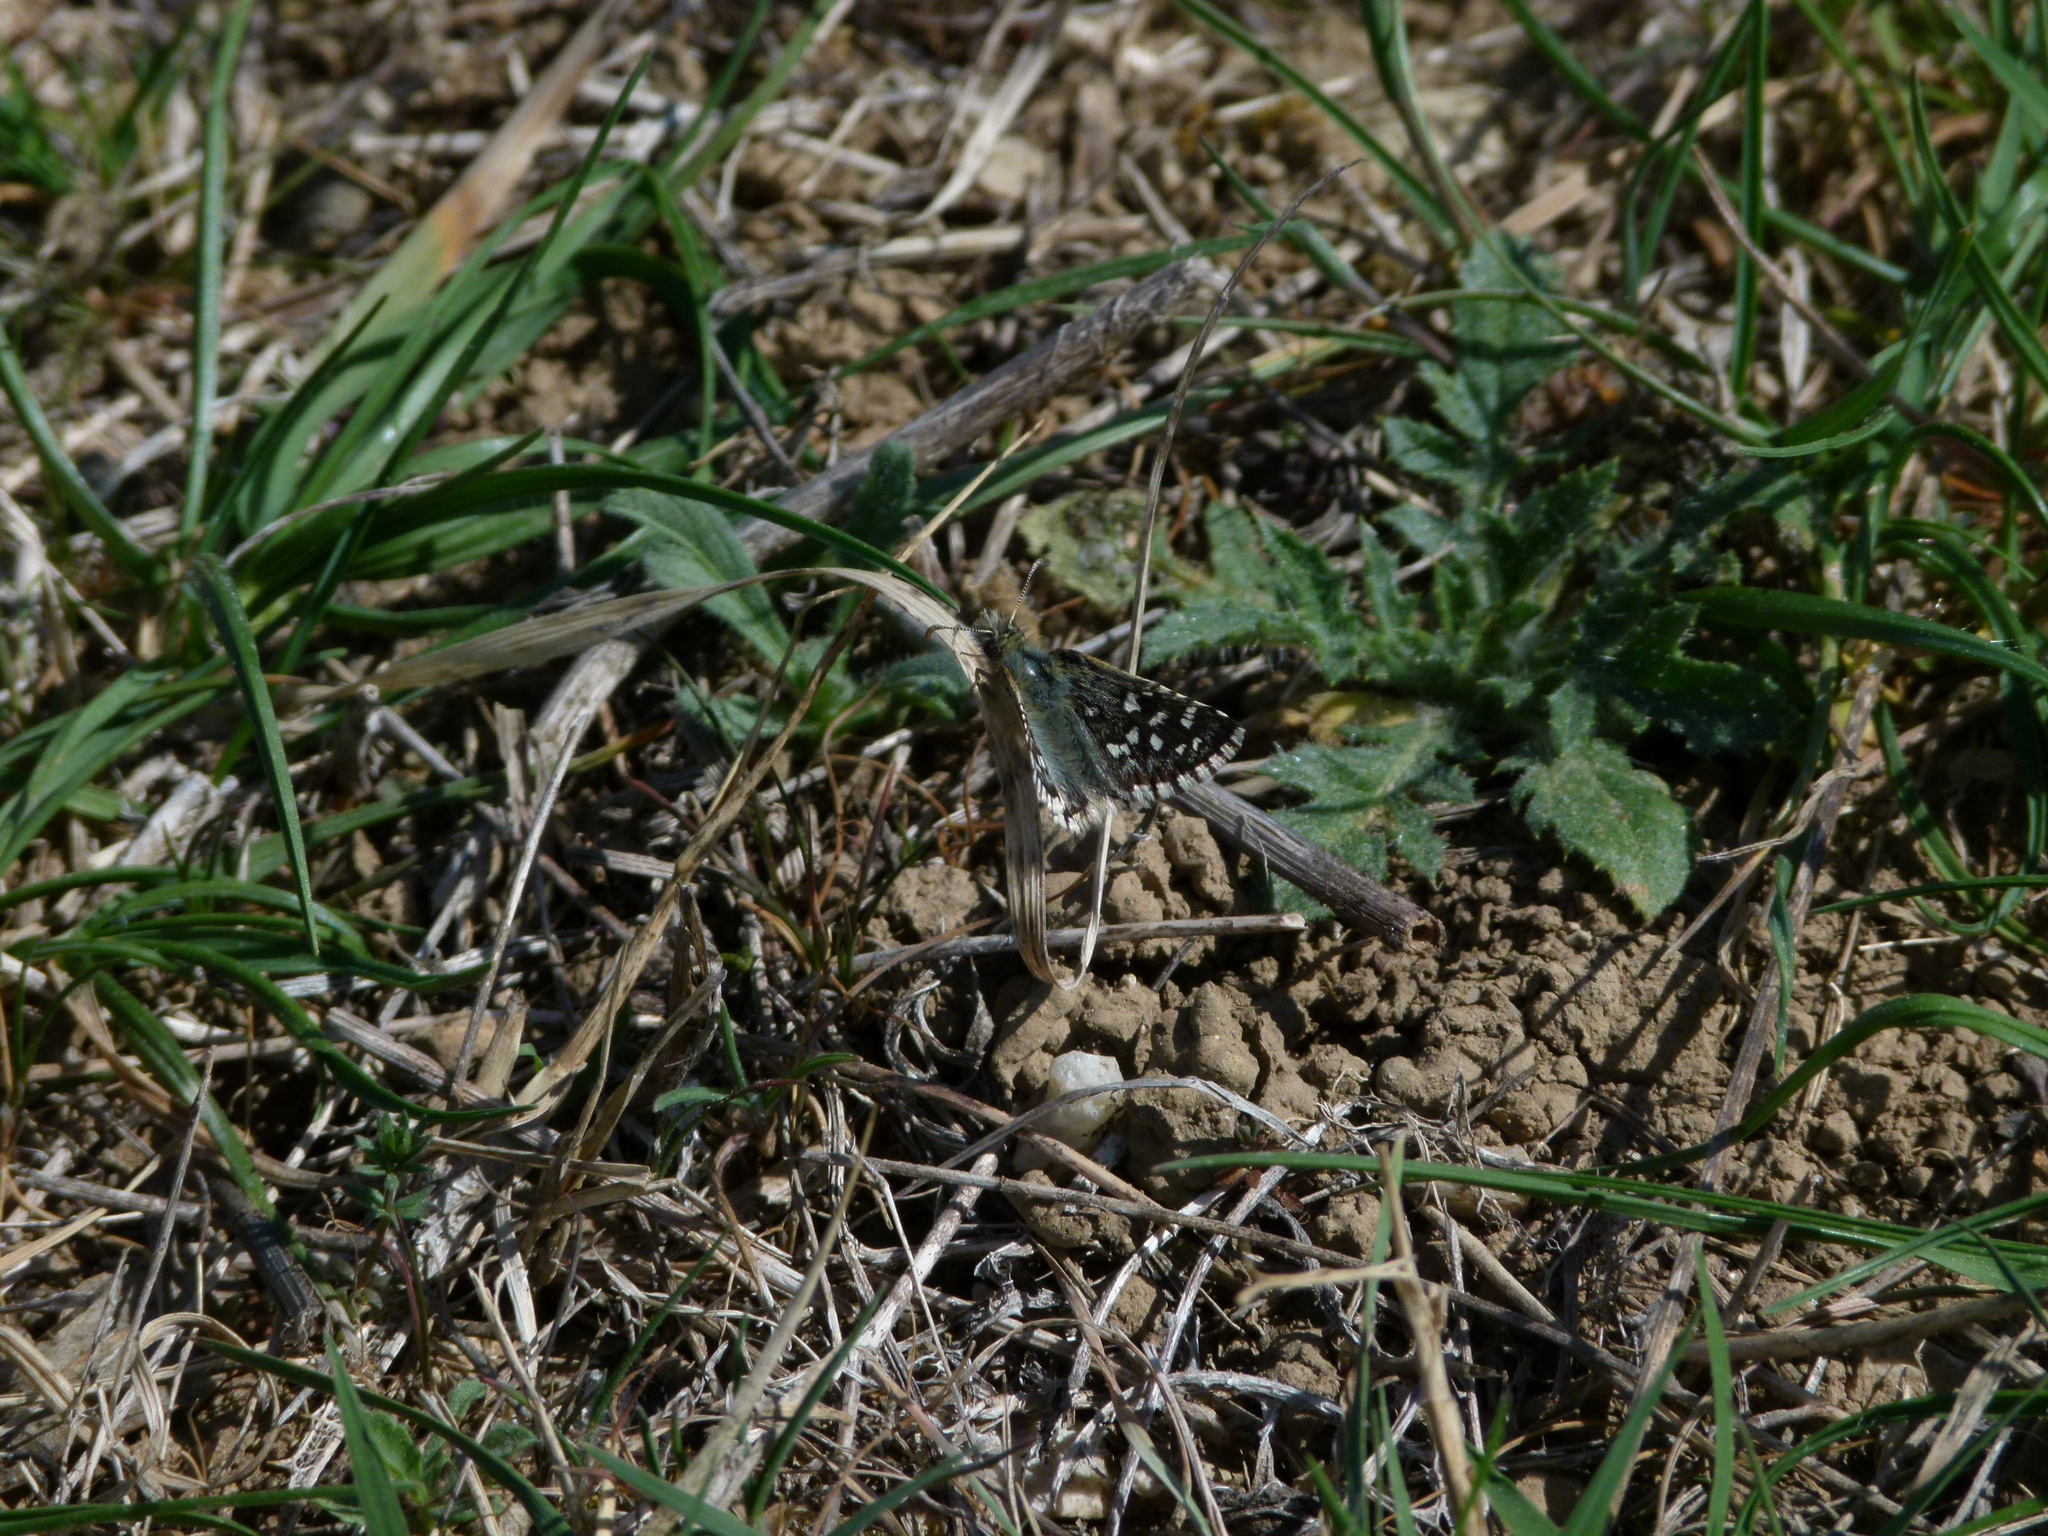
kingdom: Animalia
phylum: Arthropoda
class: Insecta
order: Lepidoptera
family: Hesperiidae
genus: Pyrgus
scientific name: Pyrgus malvoides
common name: Southern grizzled skipper
